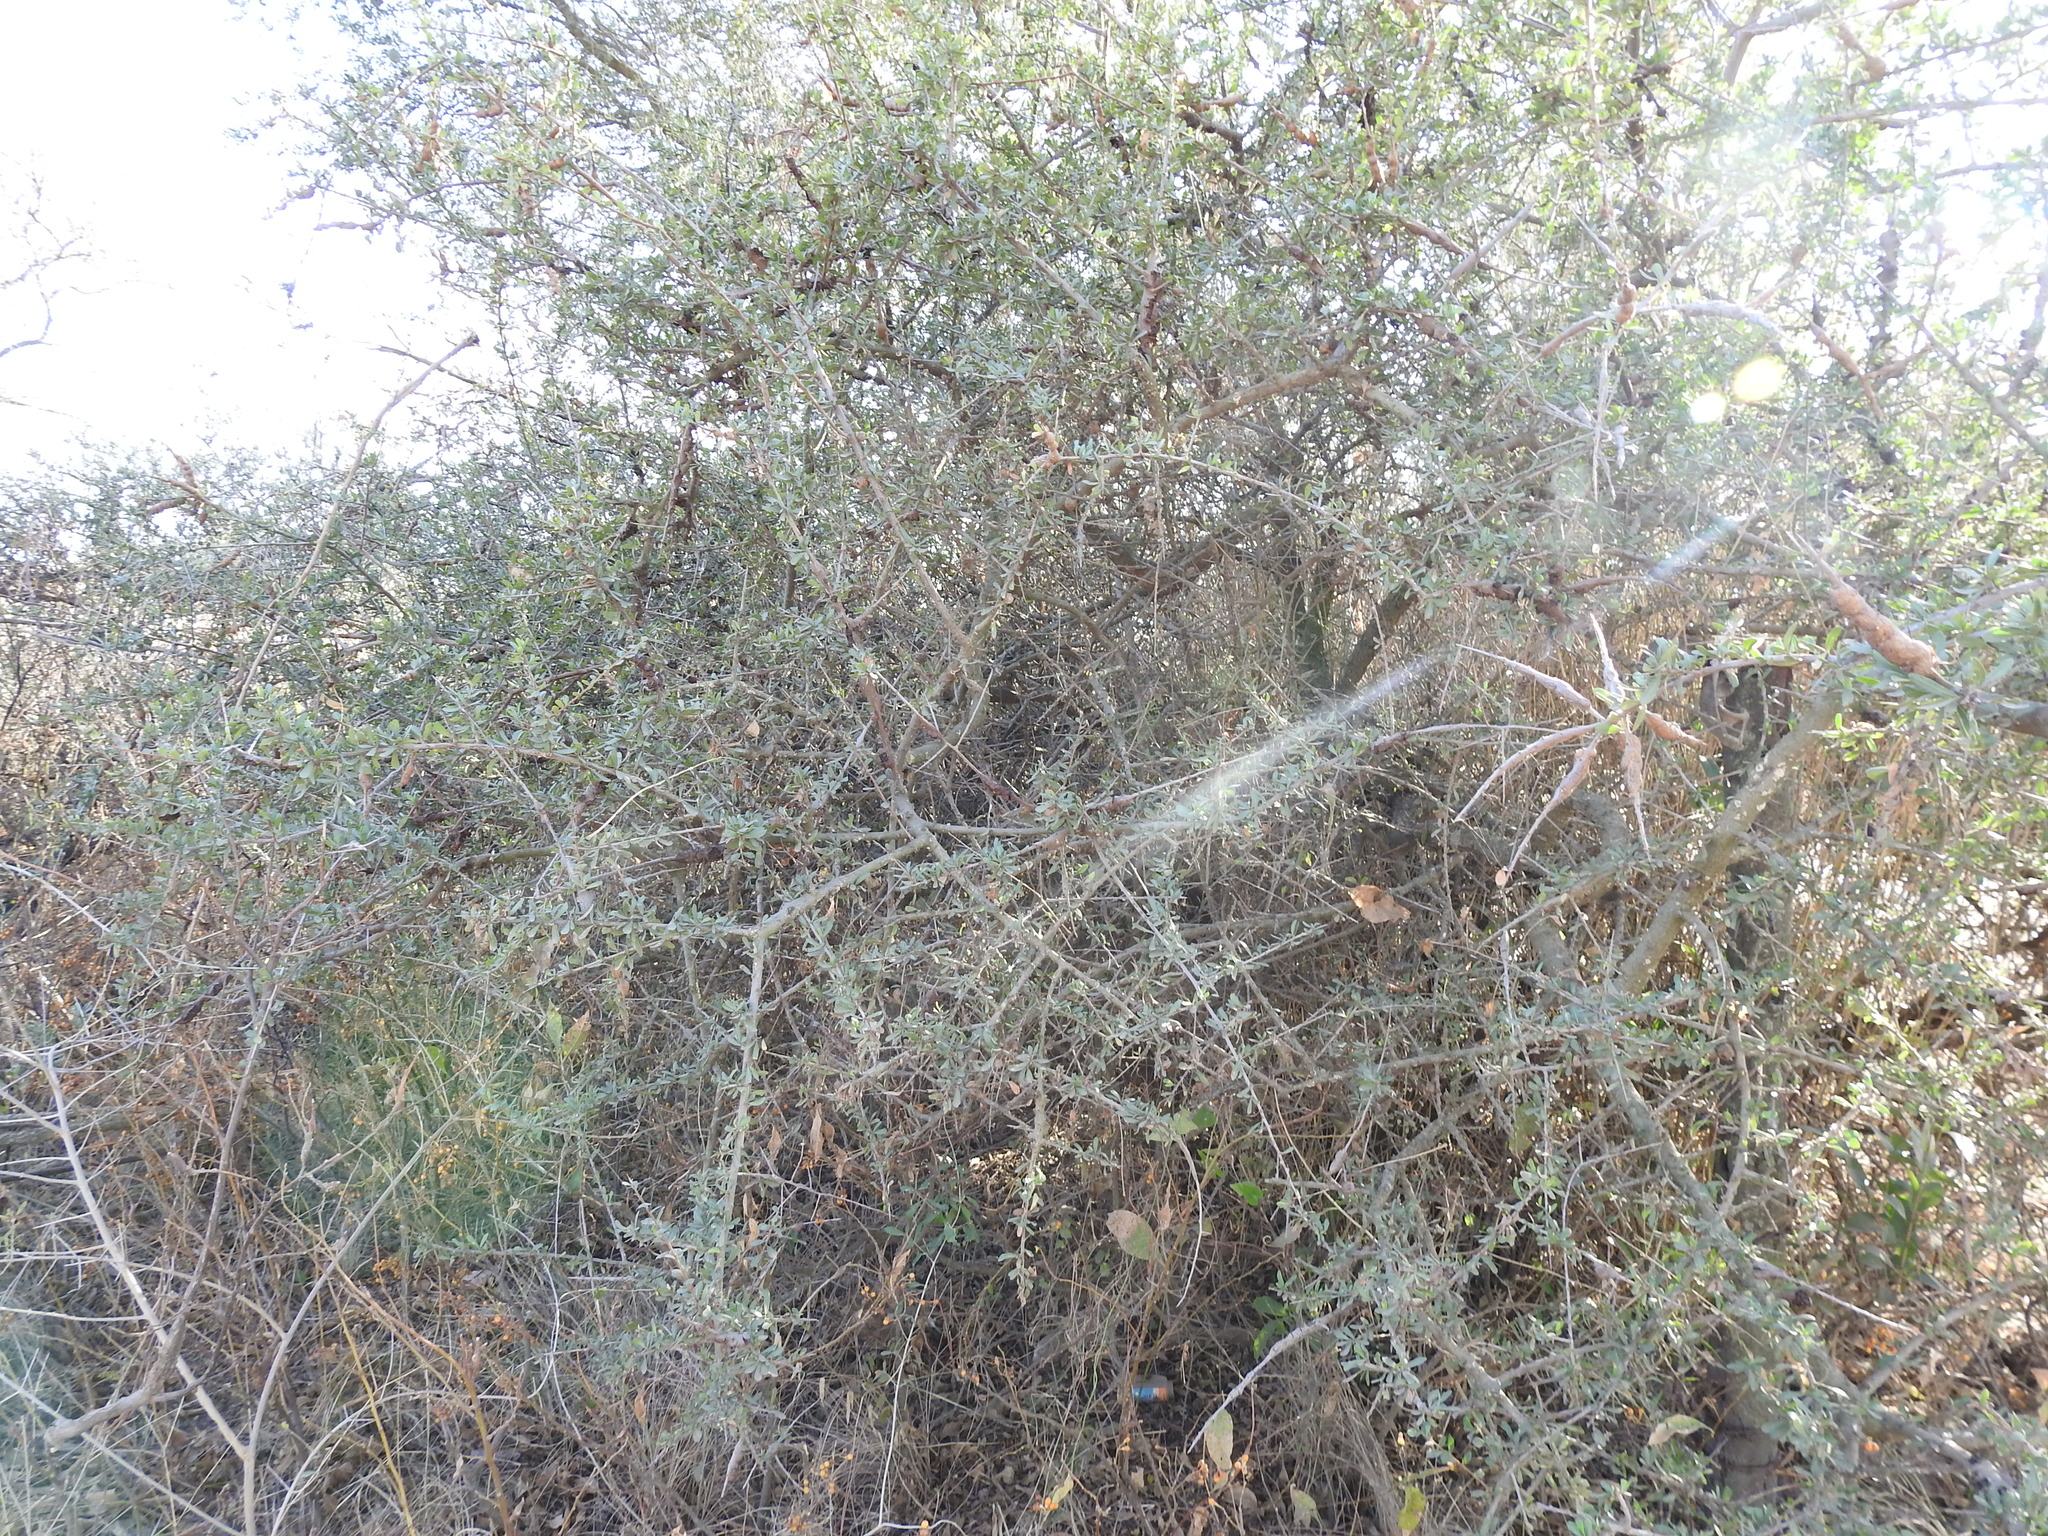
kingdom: Plantae
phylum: Tracheophyta
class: Magnoliopsida
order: Sapindales
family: Anacardiaceae
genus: Schinus
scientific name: Schinus fasciculata
